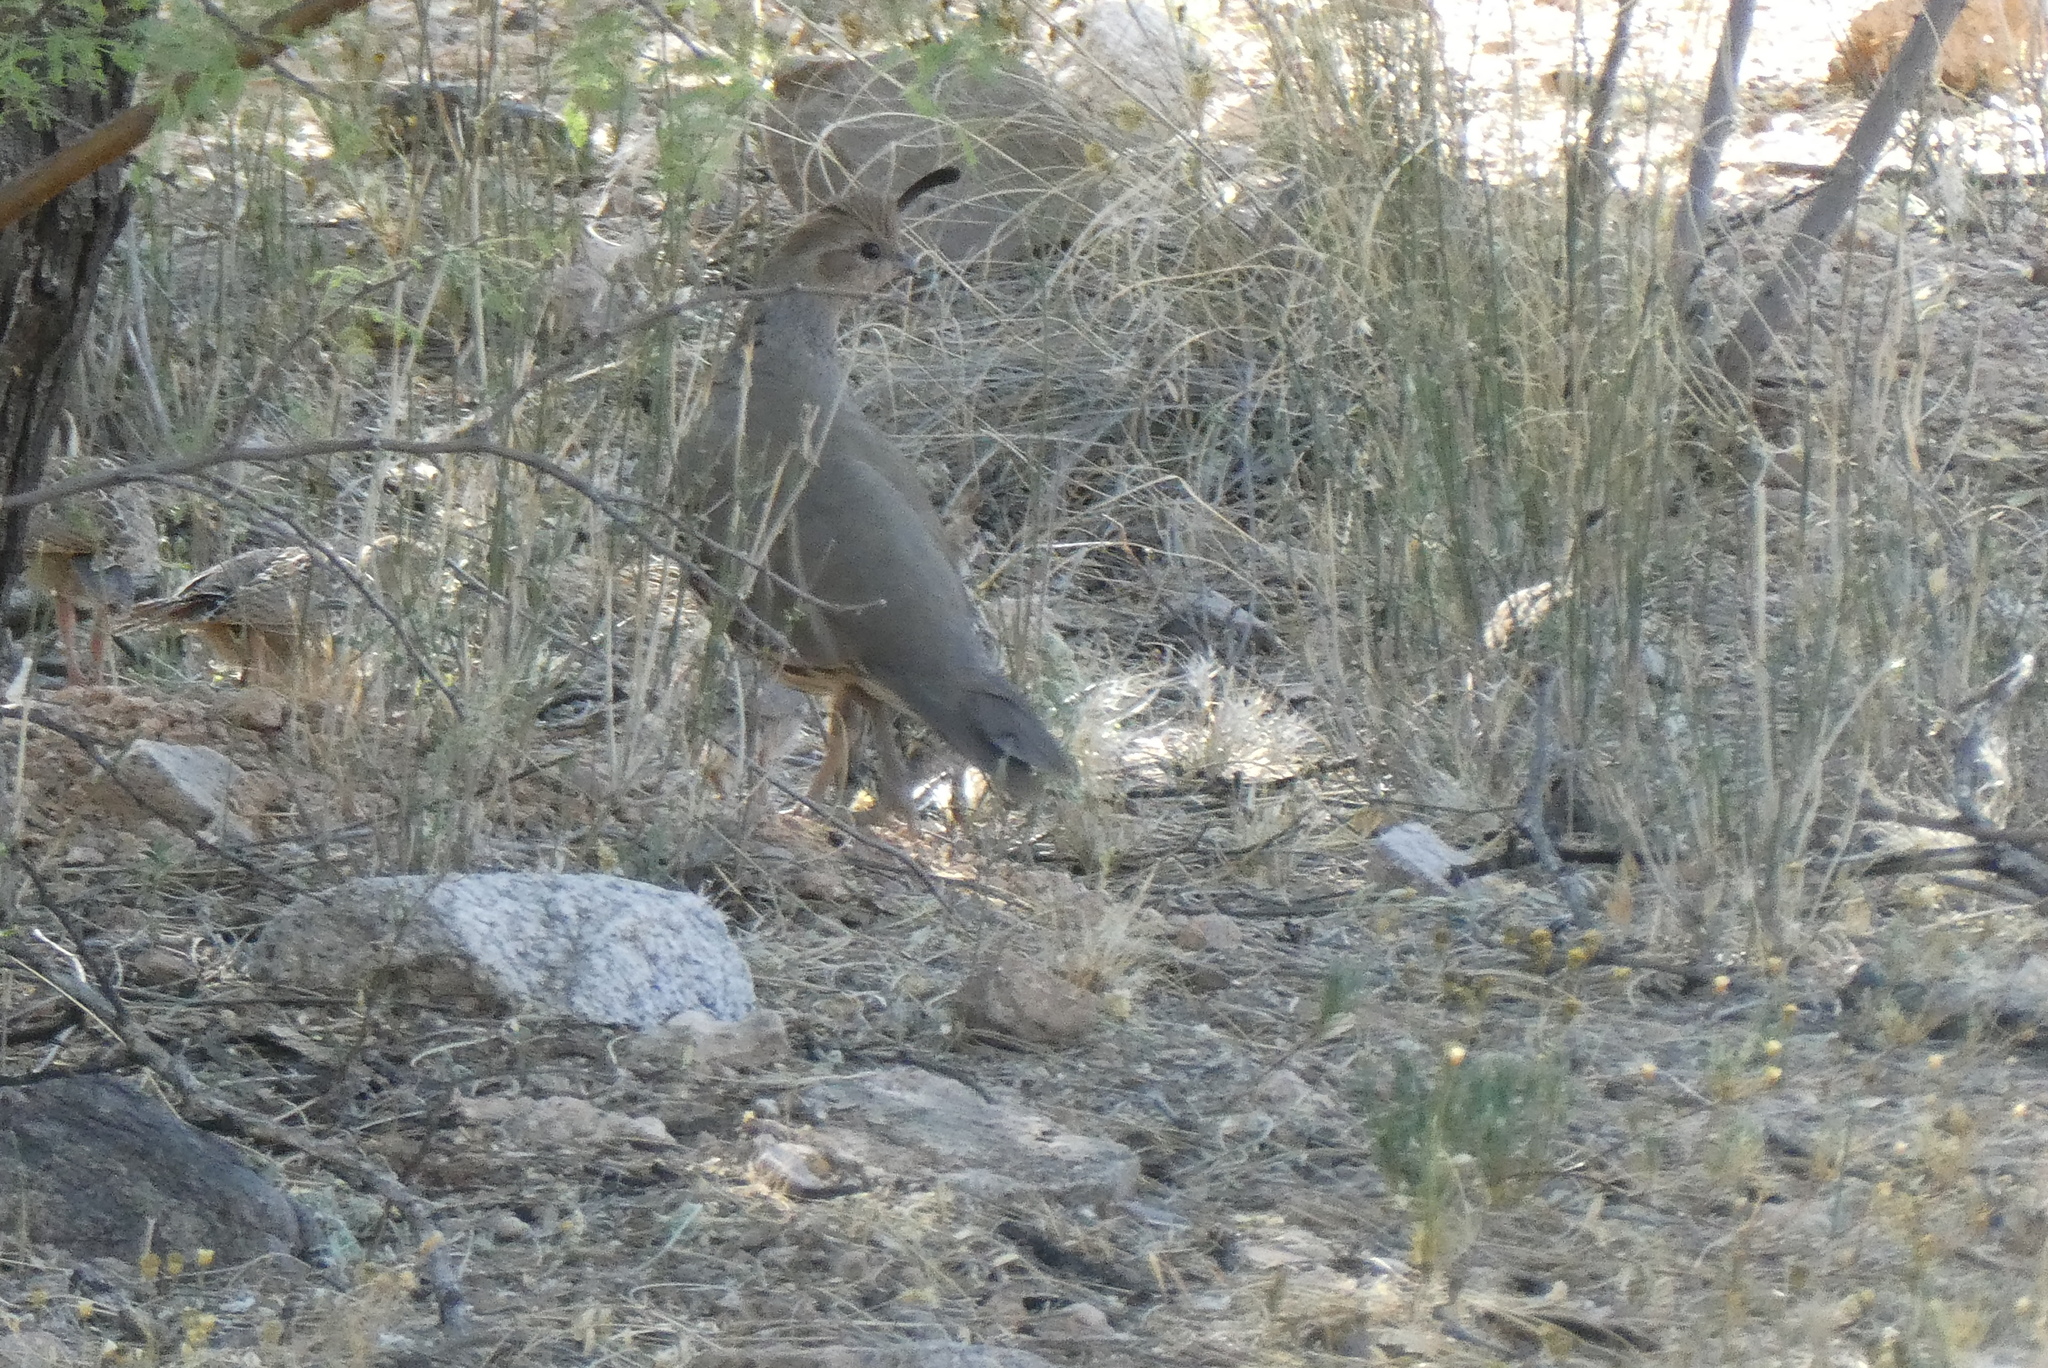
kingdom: Animalia
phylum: Chordata
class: Aves
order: Galliformes
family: Odontophoridae
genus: Callipepla
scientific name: Callipepla gambelii
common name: Gambel's quail
